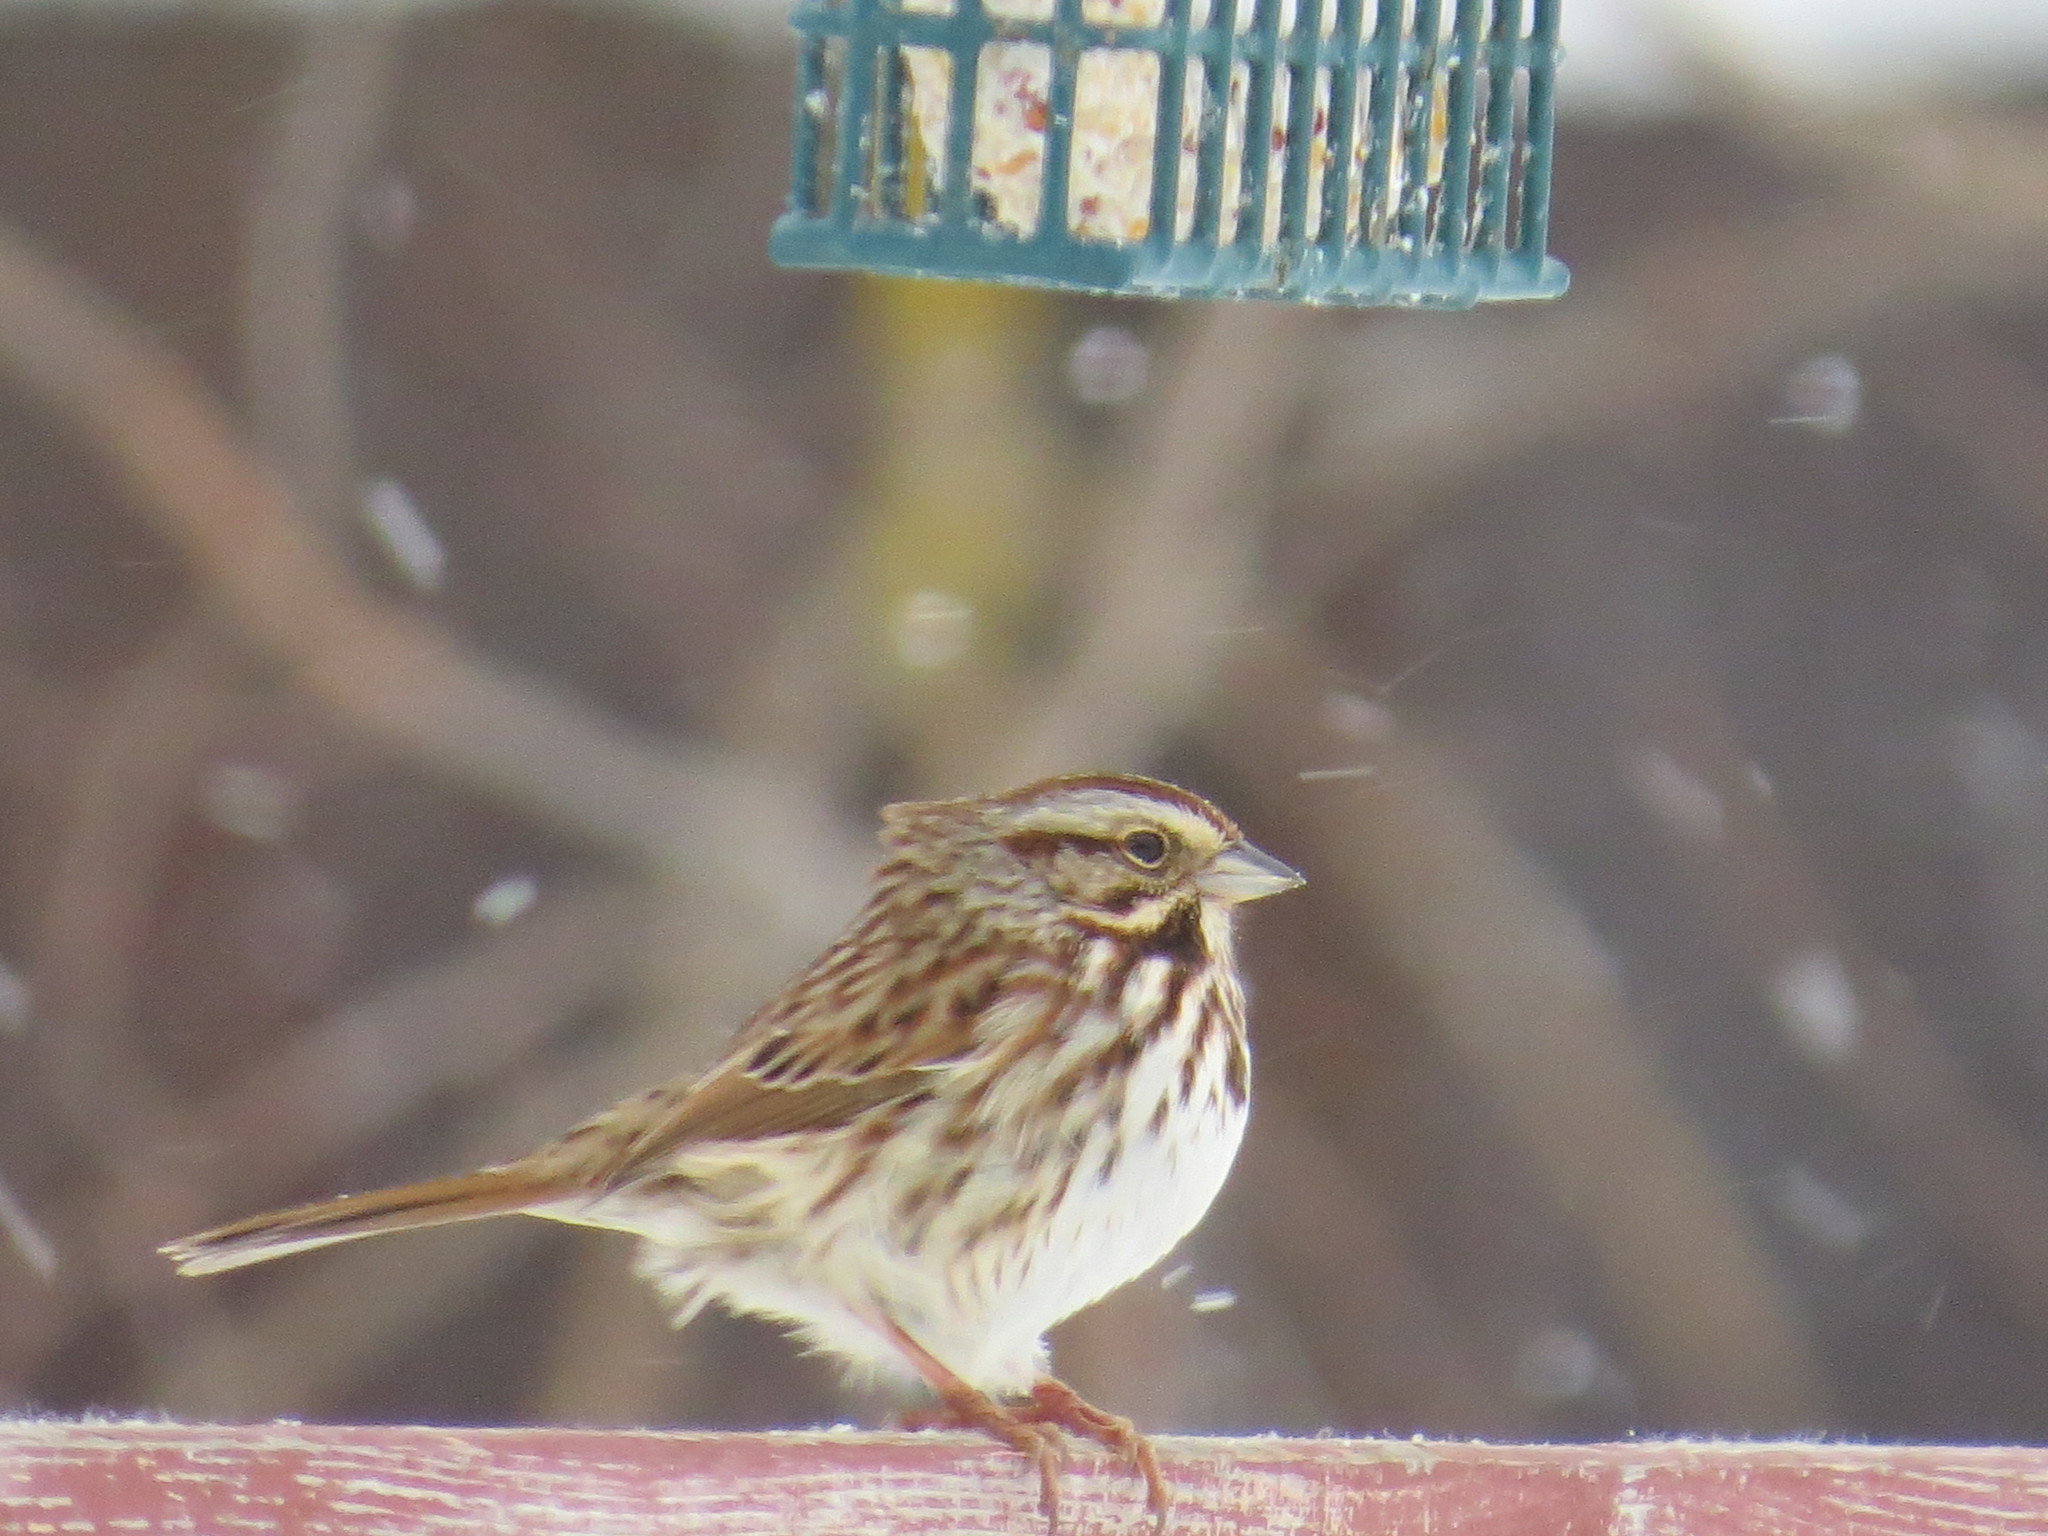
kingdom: Animalia
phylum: Chordata
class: Aves
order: Passeriformes
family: Passerellidae
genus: Melospiza
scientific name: Melospiza melodia
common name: Song sparrow
